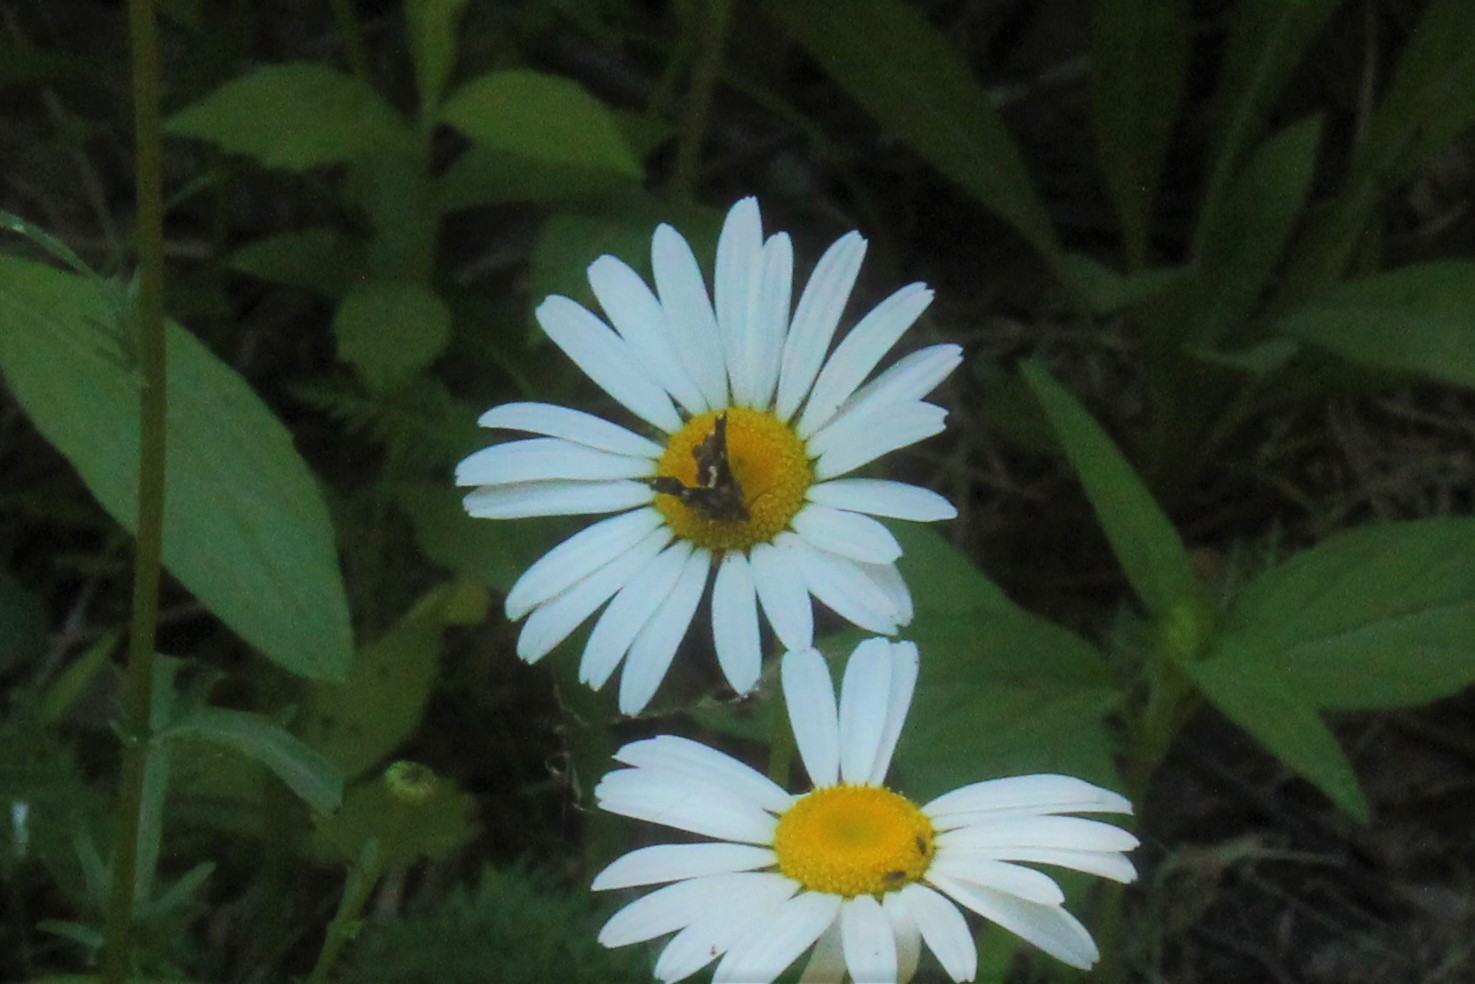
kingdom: Animalia
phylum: Arthropoda
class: Insecta
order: Lepidoptera
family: Thyrididae
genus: Thyris
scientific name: Thyris maculata
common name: Spotted thyris moth
